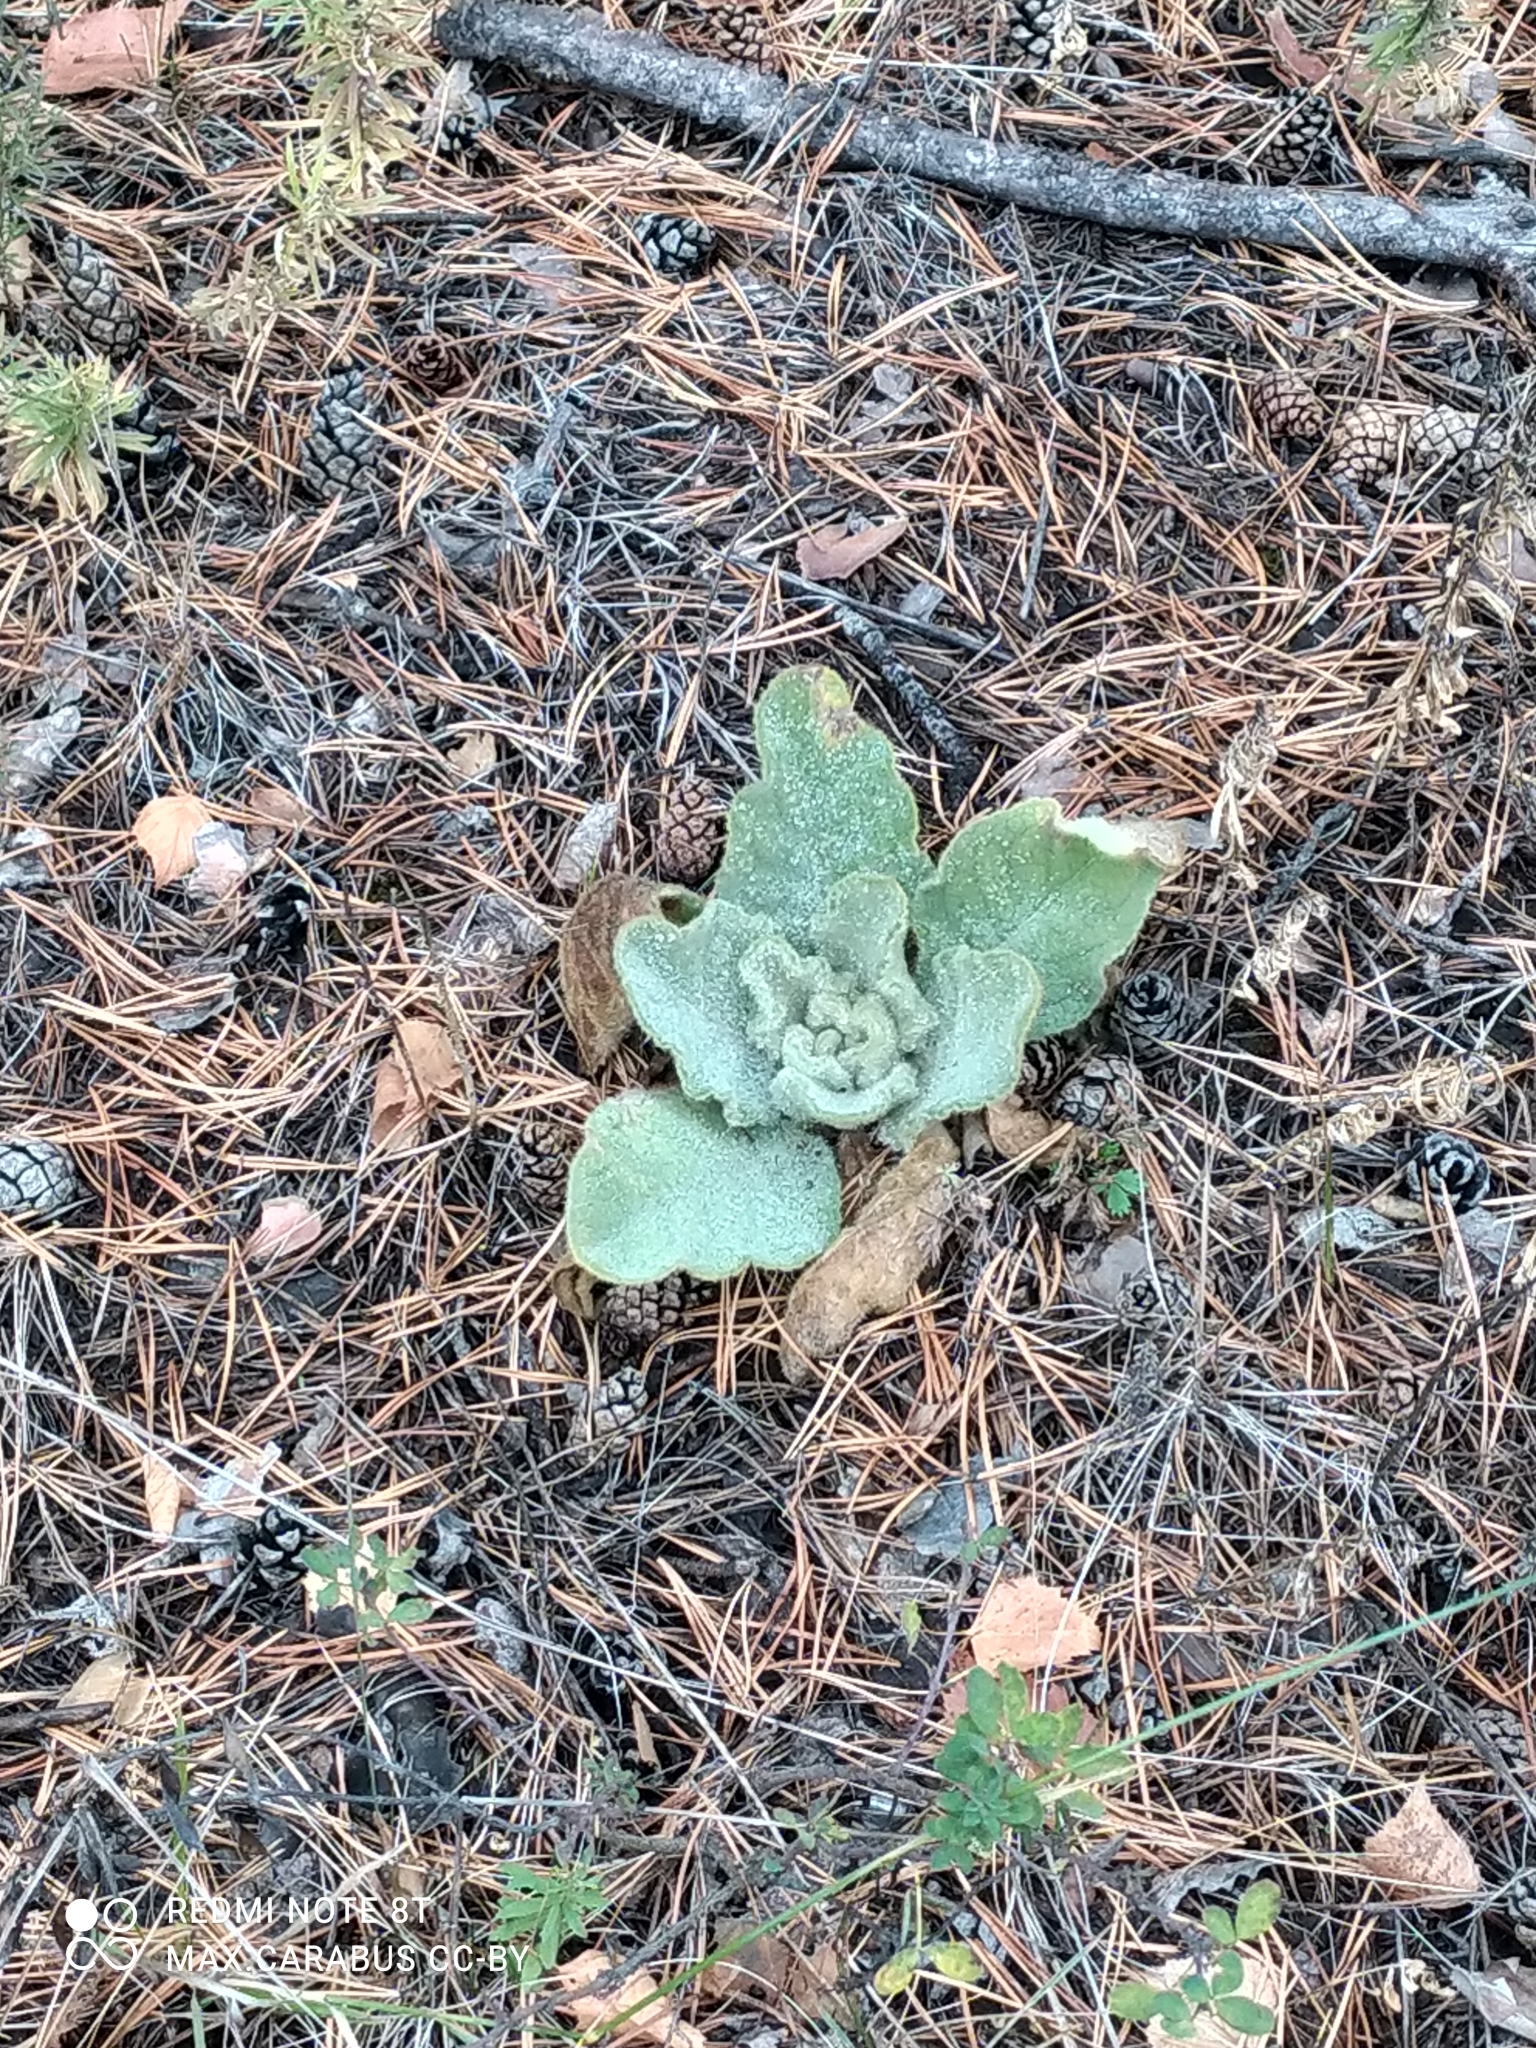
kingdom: Plantae
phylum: Tracheophyta
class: Magnoliopsida
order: Lamiales
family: Scrophulariaceae
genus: Verbascum
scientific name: Verbascum thapsus
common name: Common mullein
